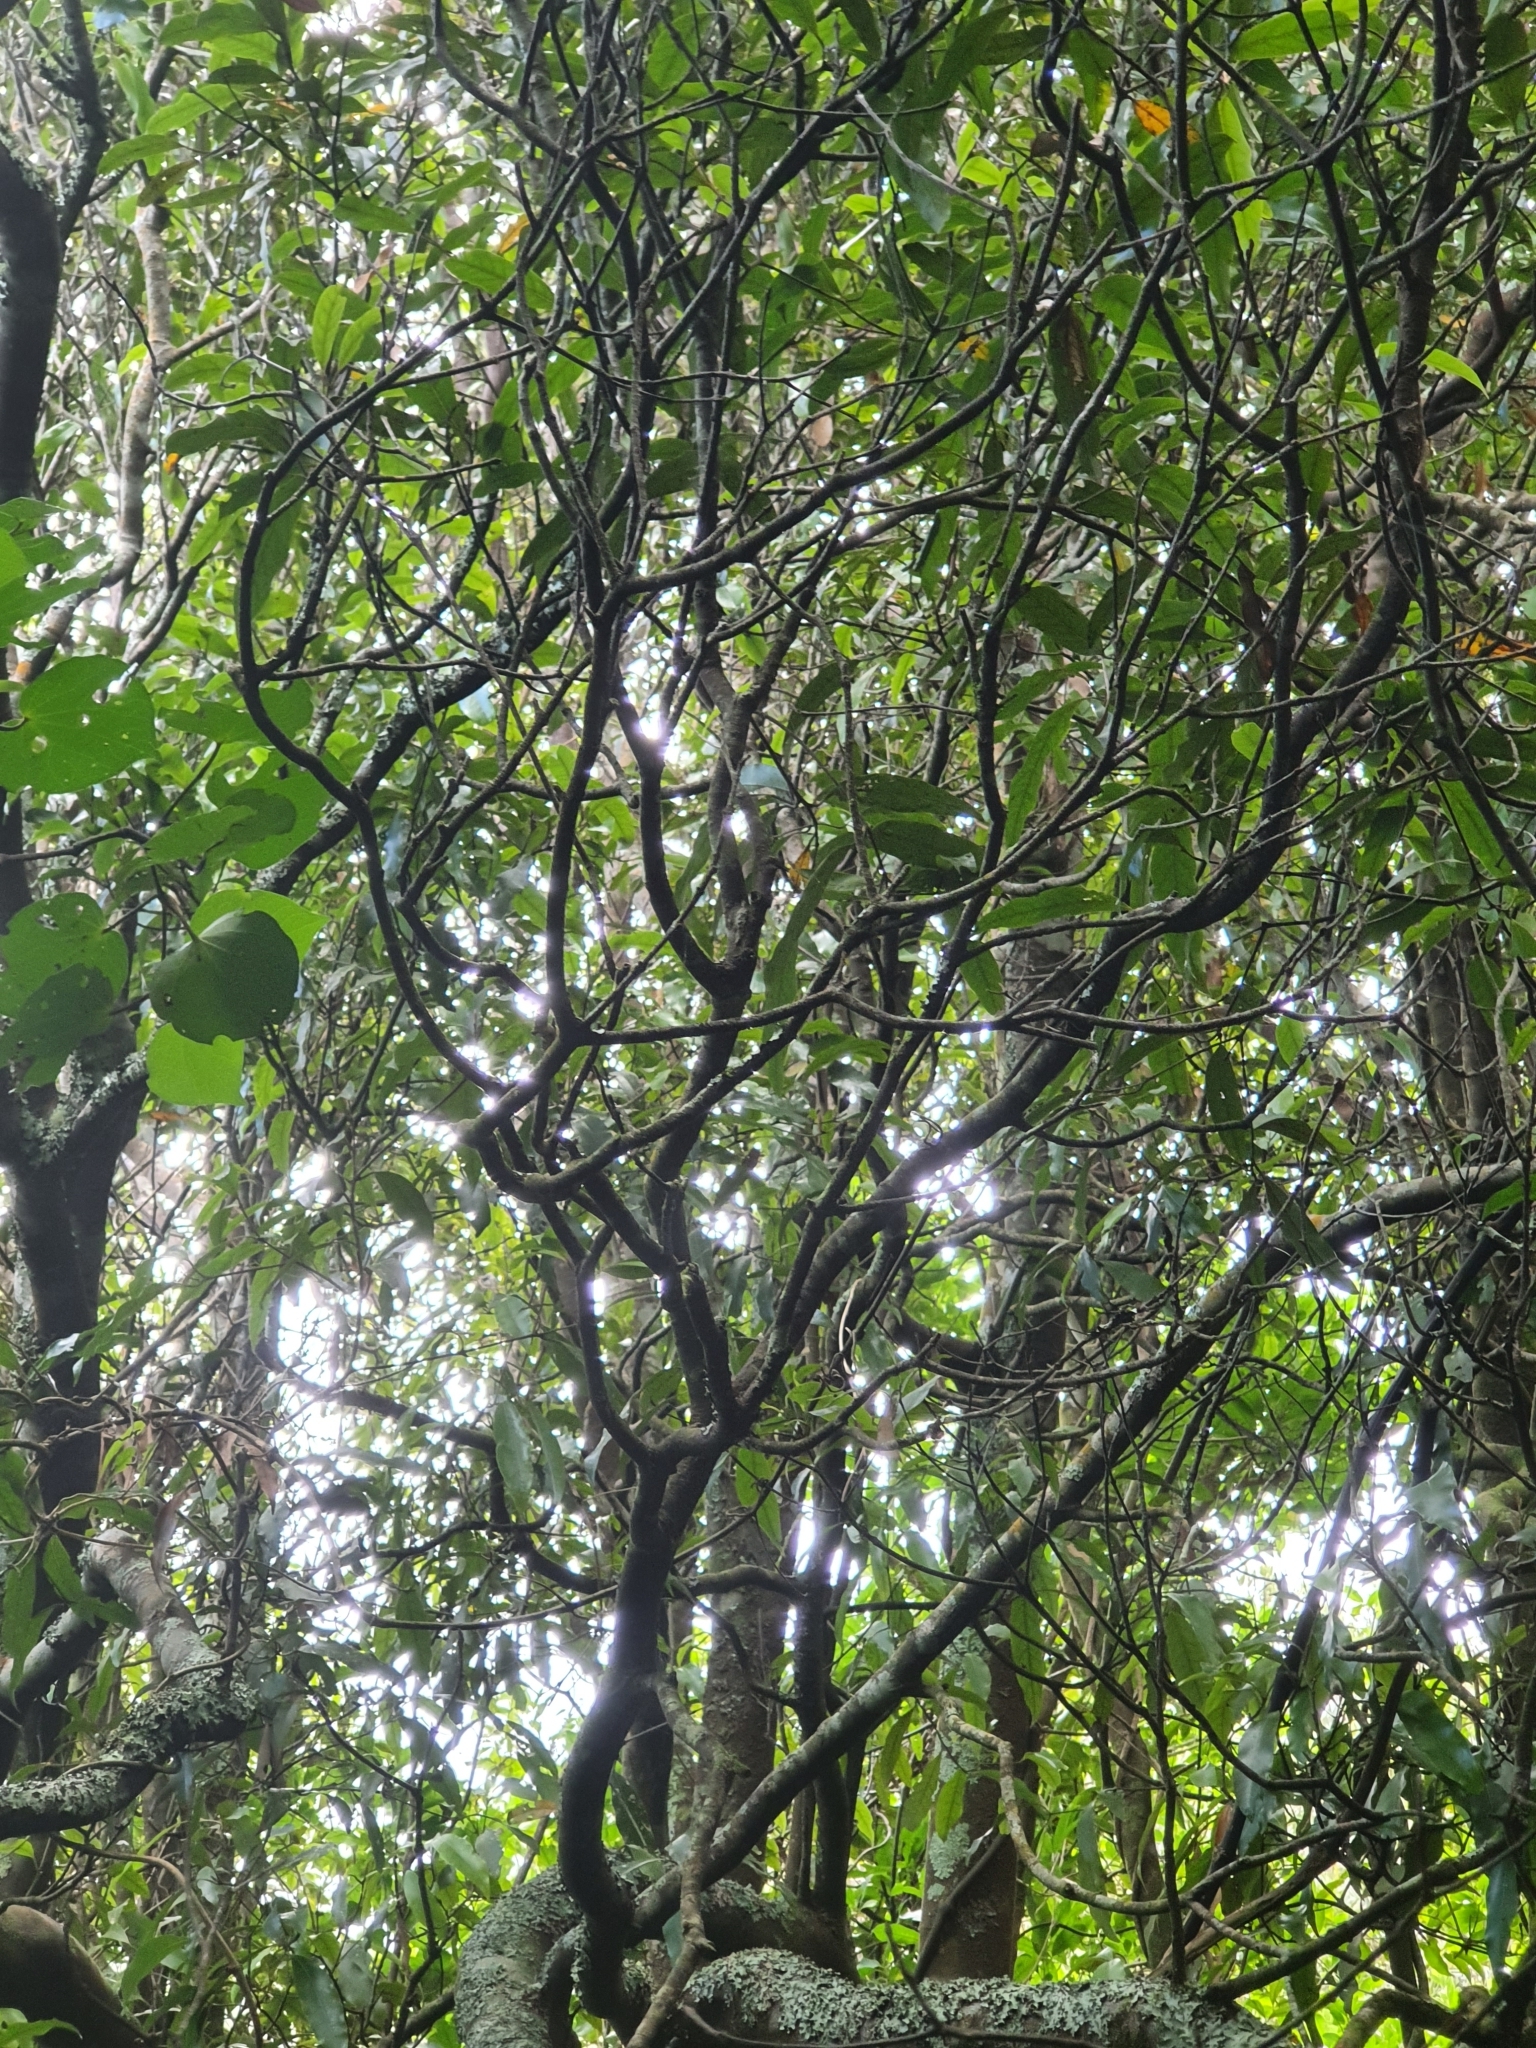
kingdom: Plantae
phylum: Tracheophyta
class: Magnoliopsida
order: Laurales
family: Lauraceae
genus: Beilschmiedia
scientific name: Beilschmiedia tawa
